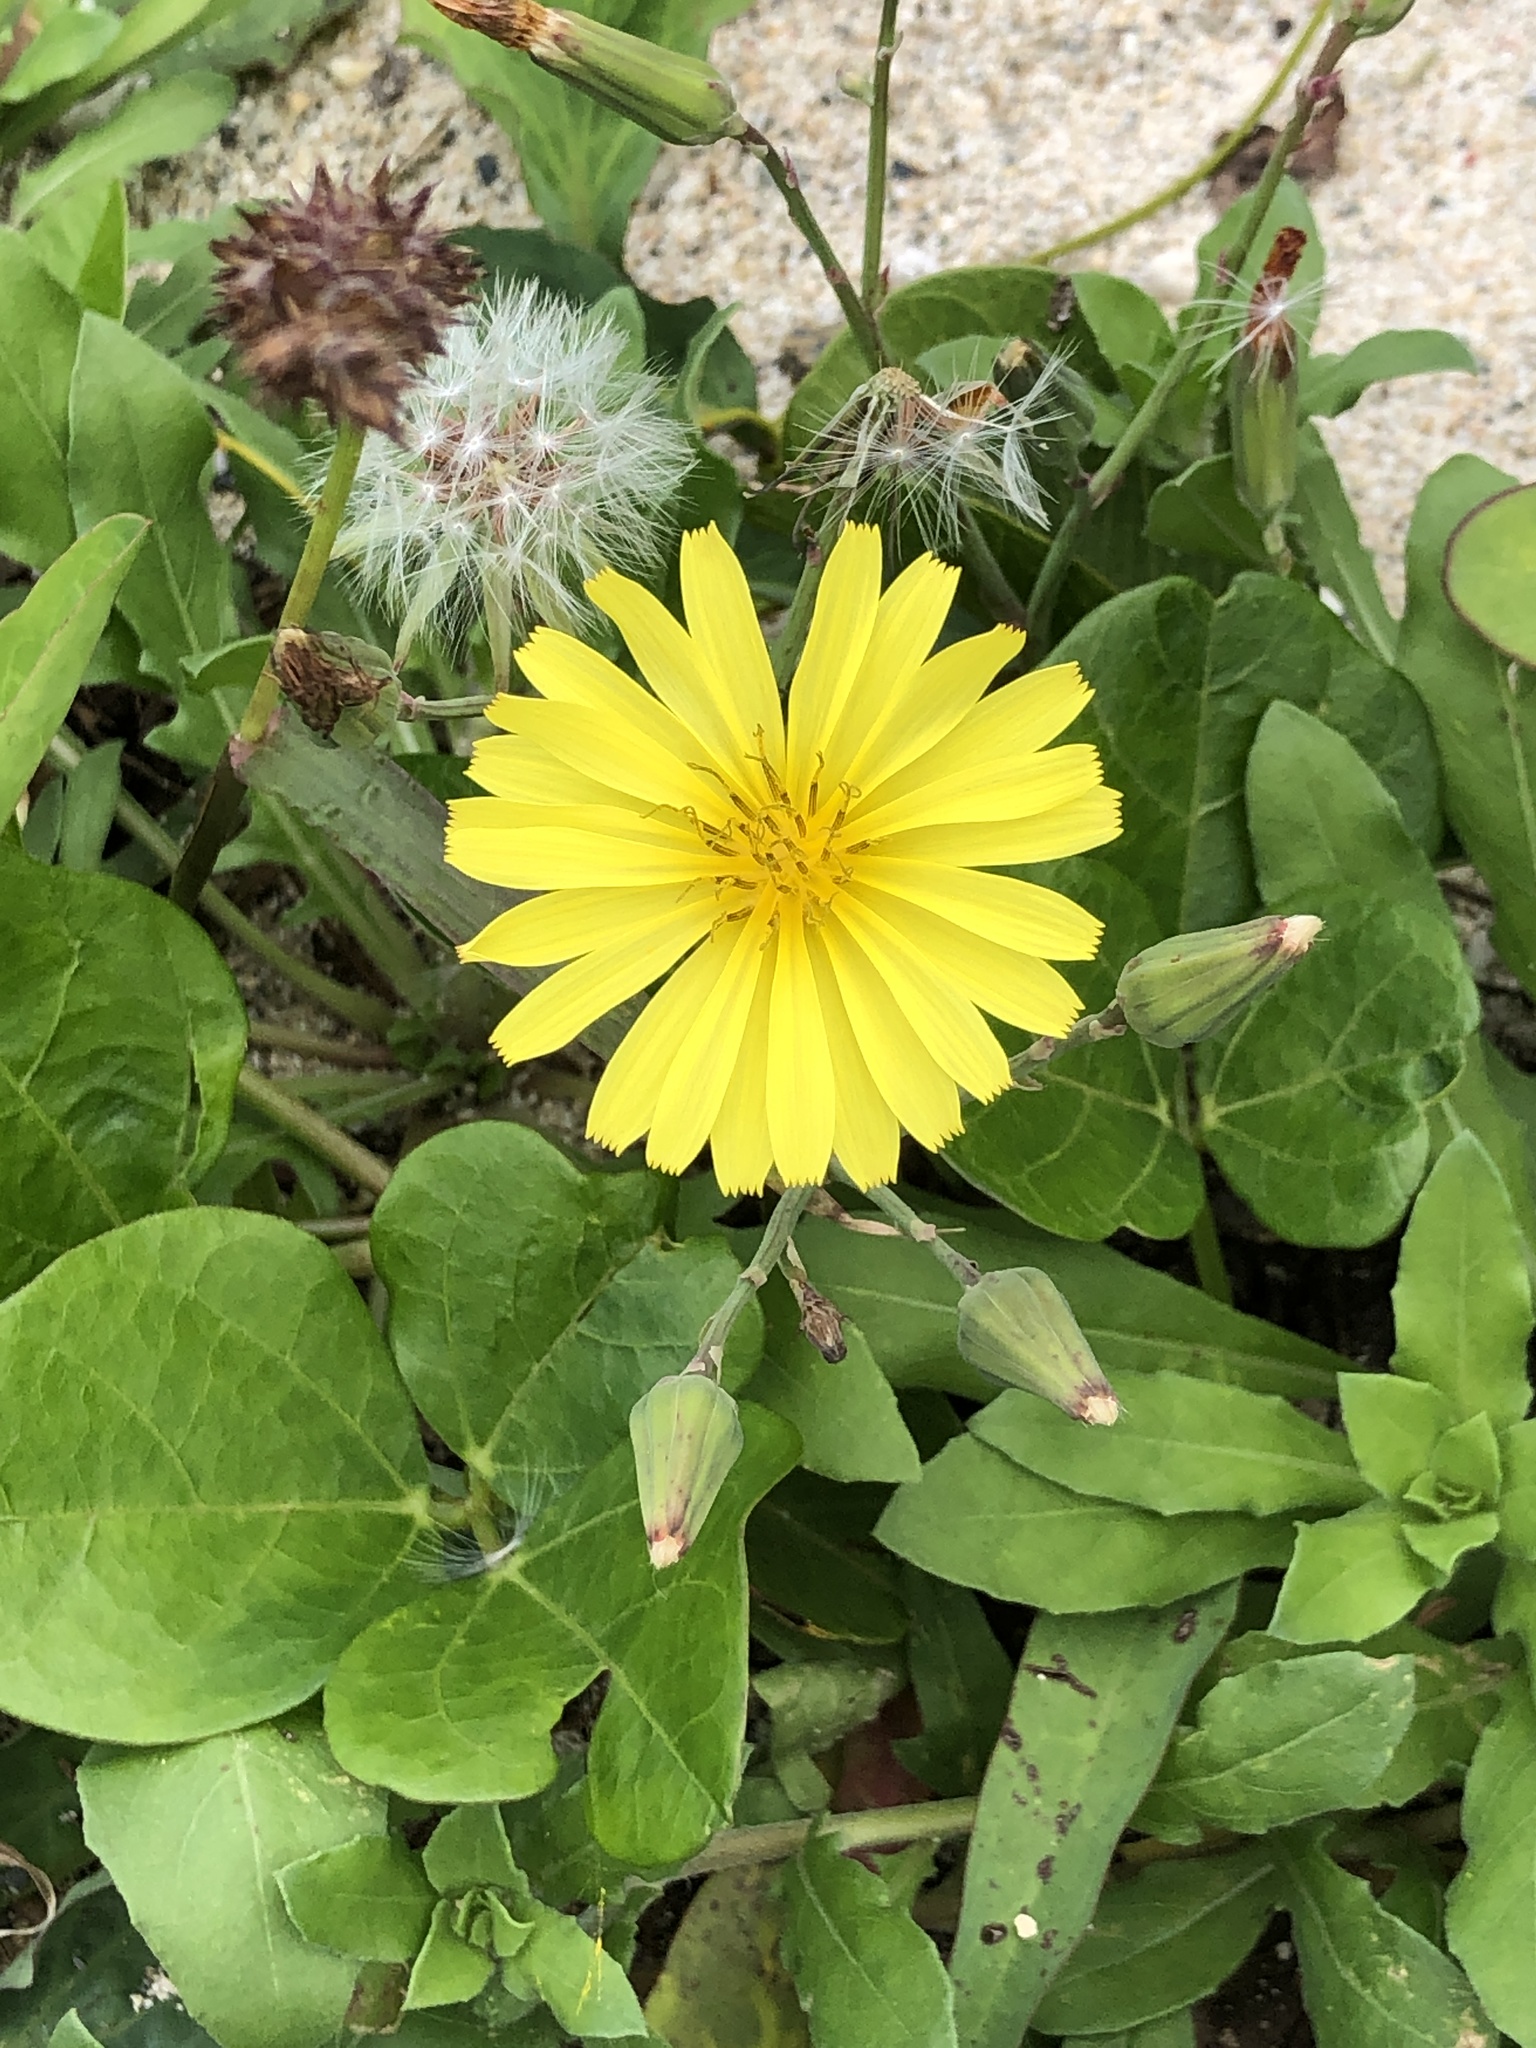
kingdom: Plantae
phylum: Tracheophyta
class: Magnoliopsida
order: Asterales
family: Asteraceae
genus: Ixeris
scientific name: Ixeris japonica
